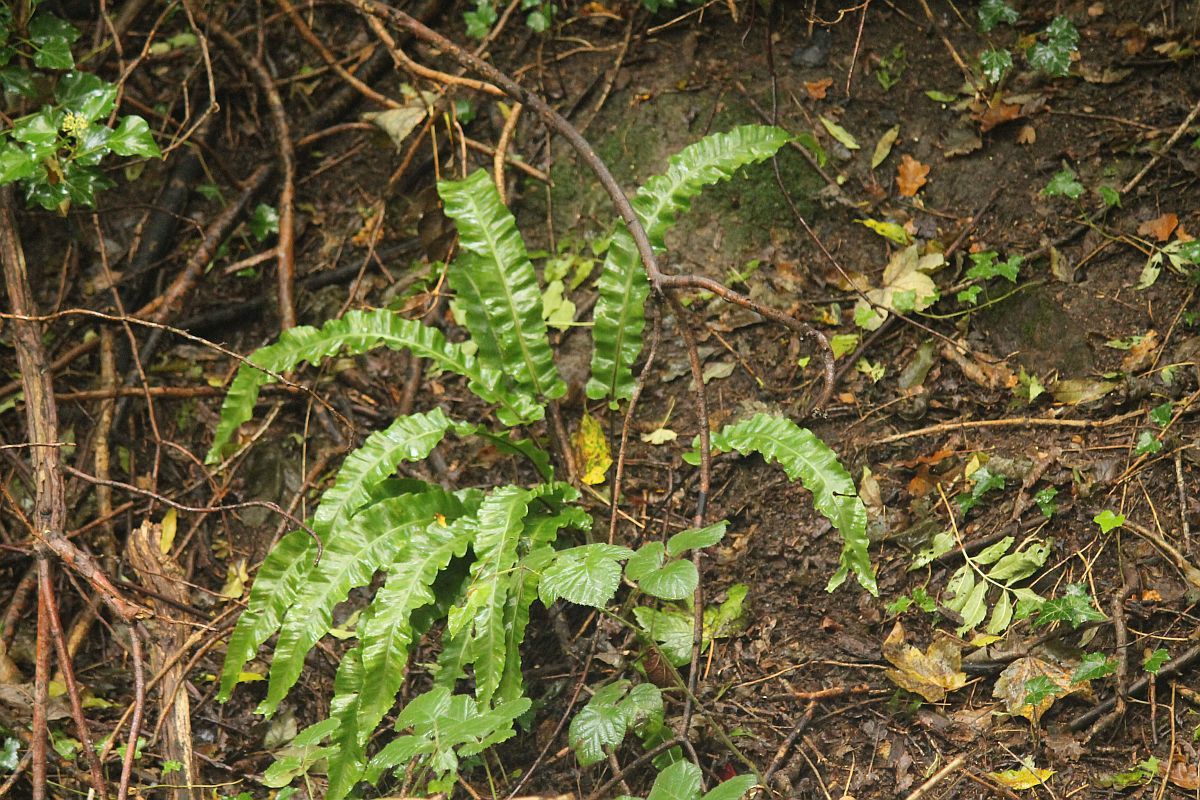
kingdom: Plantae
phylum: Tracheophyta
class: Polypodiopsida
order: Polypodiales
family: Aspleniaceae
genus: Asplenium
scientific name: Asplenium scolopendrium
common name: Hart's-tongue fern
